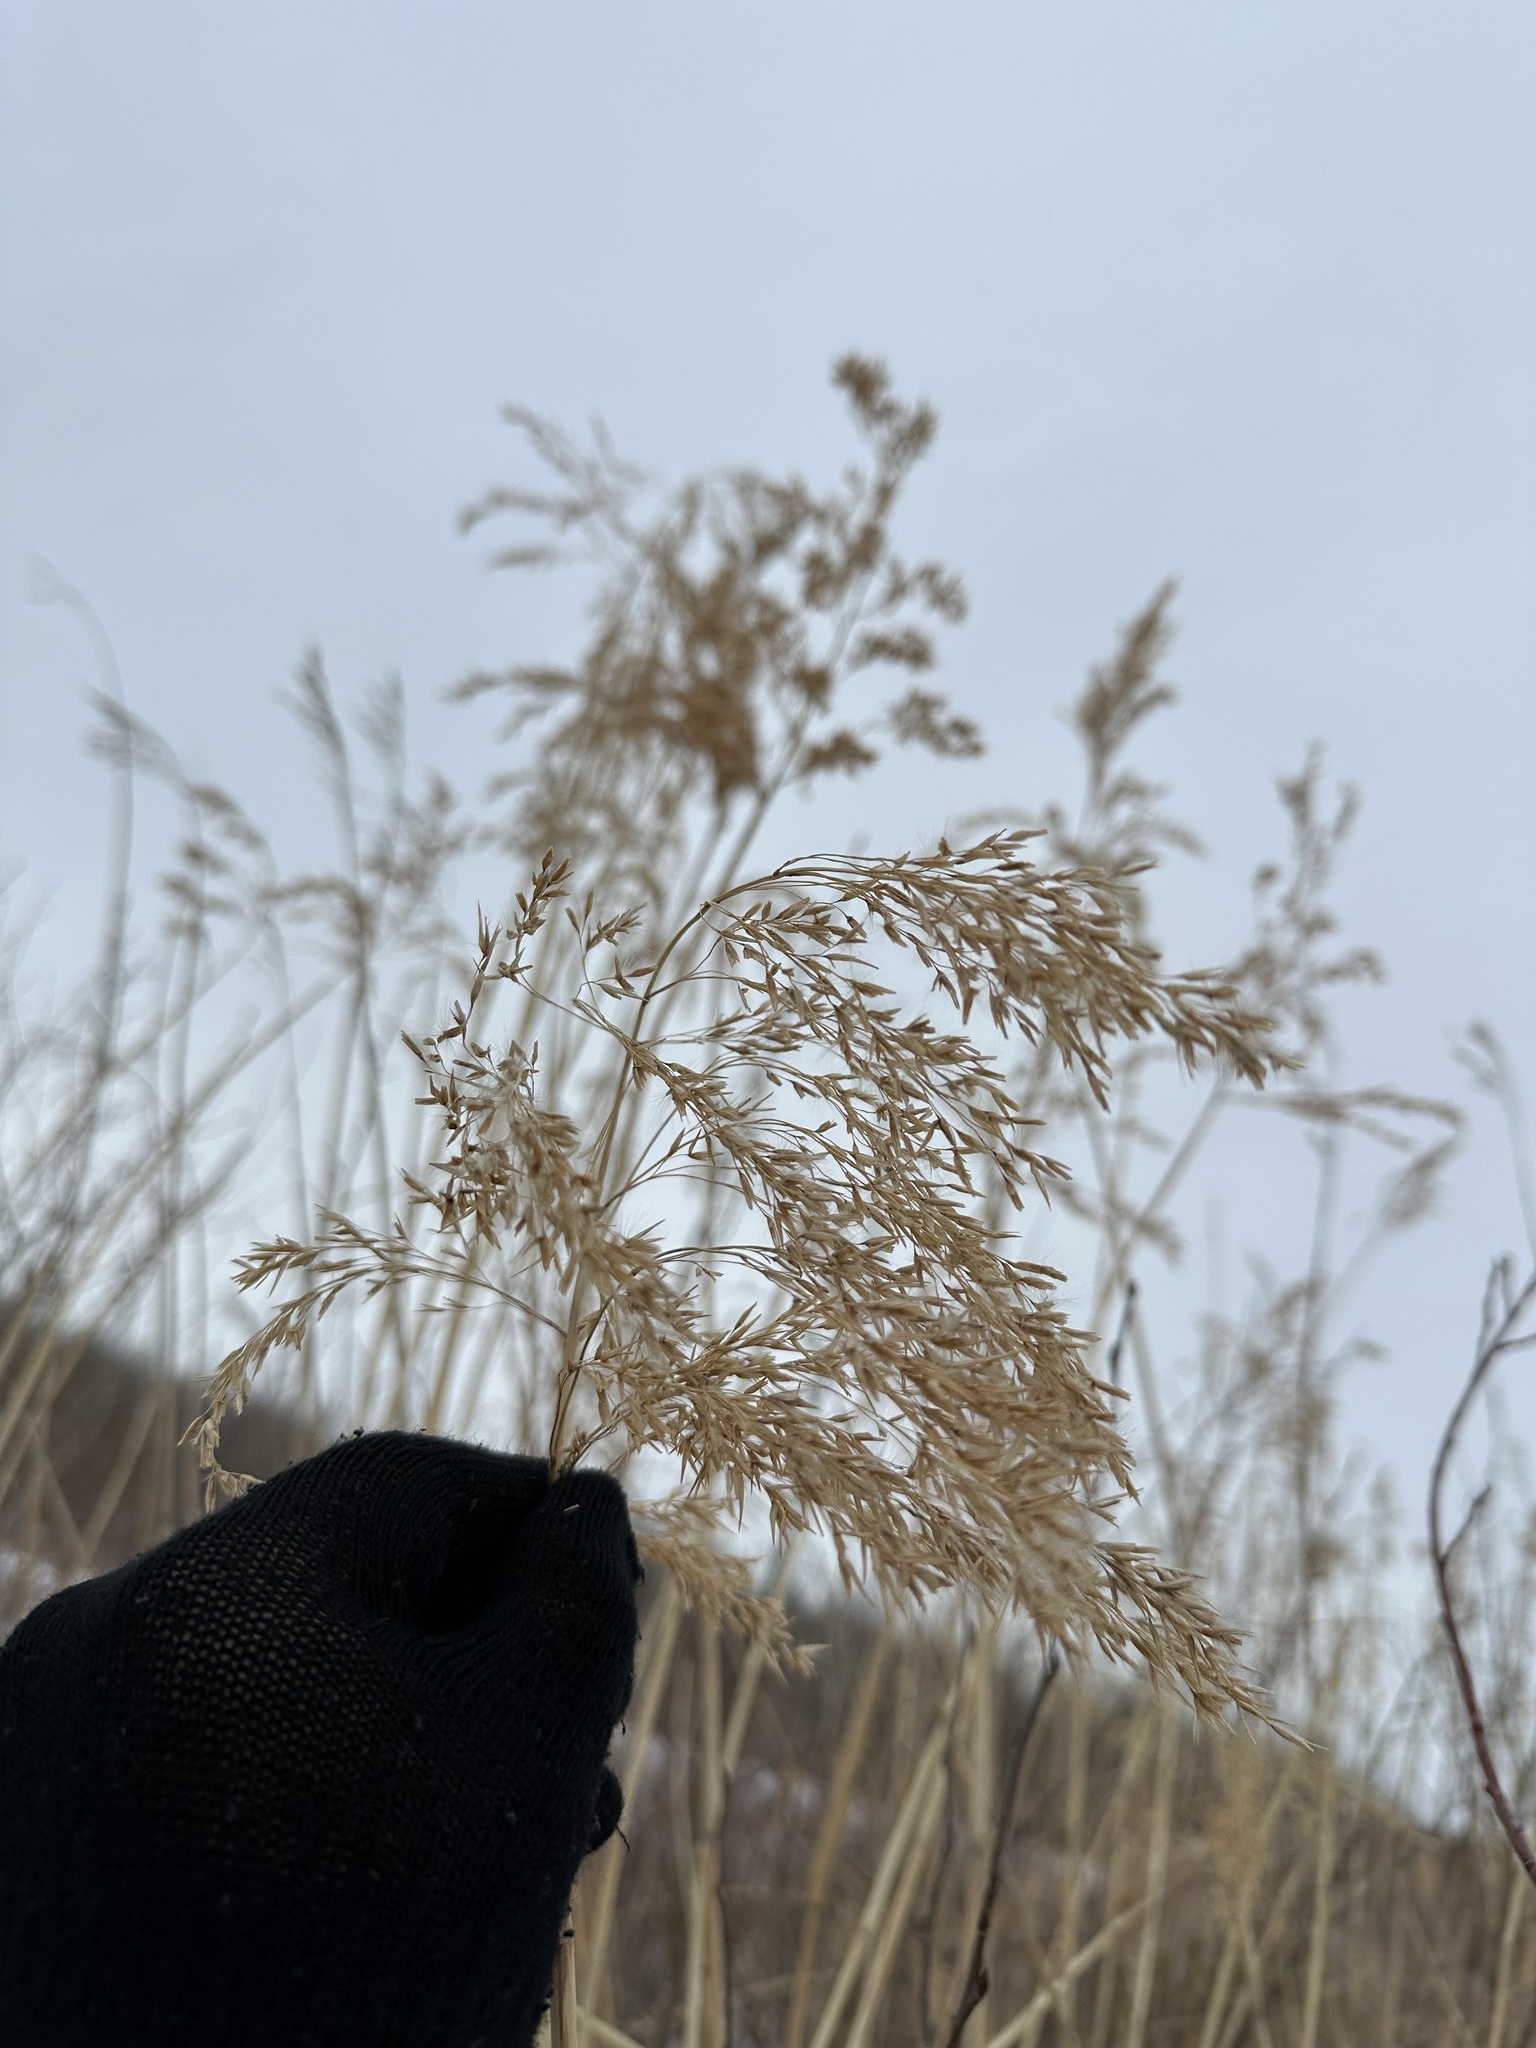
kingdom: Plantae
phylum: Tracheophyta
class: Liliopsida
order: Poales
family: Poaceae
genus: Phragmites
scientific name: Phragmites australis
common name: Common reed
